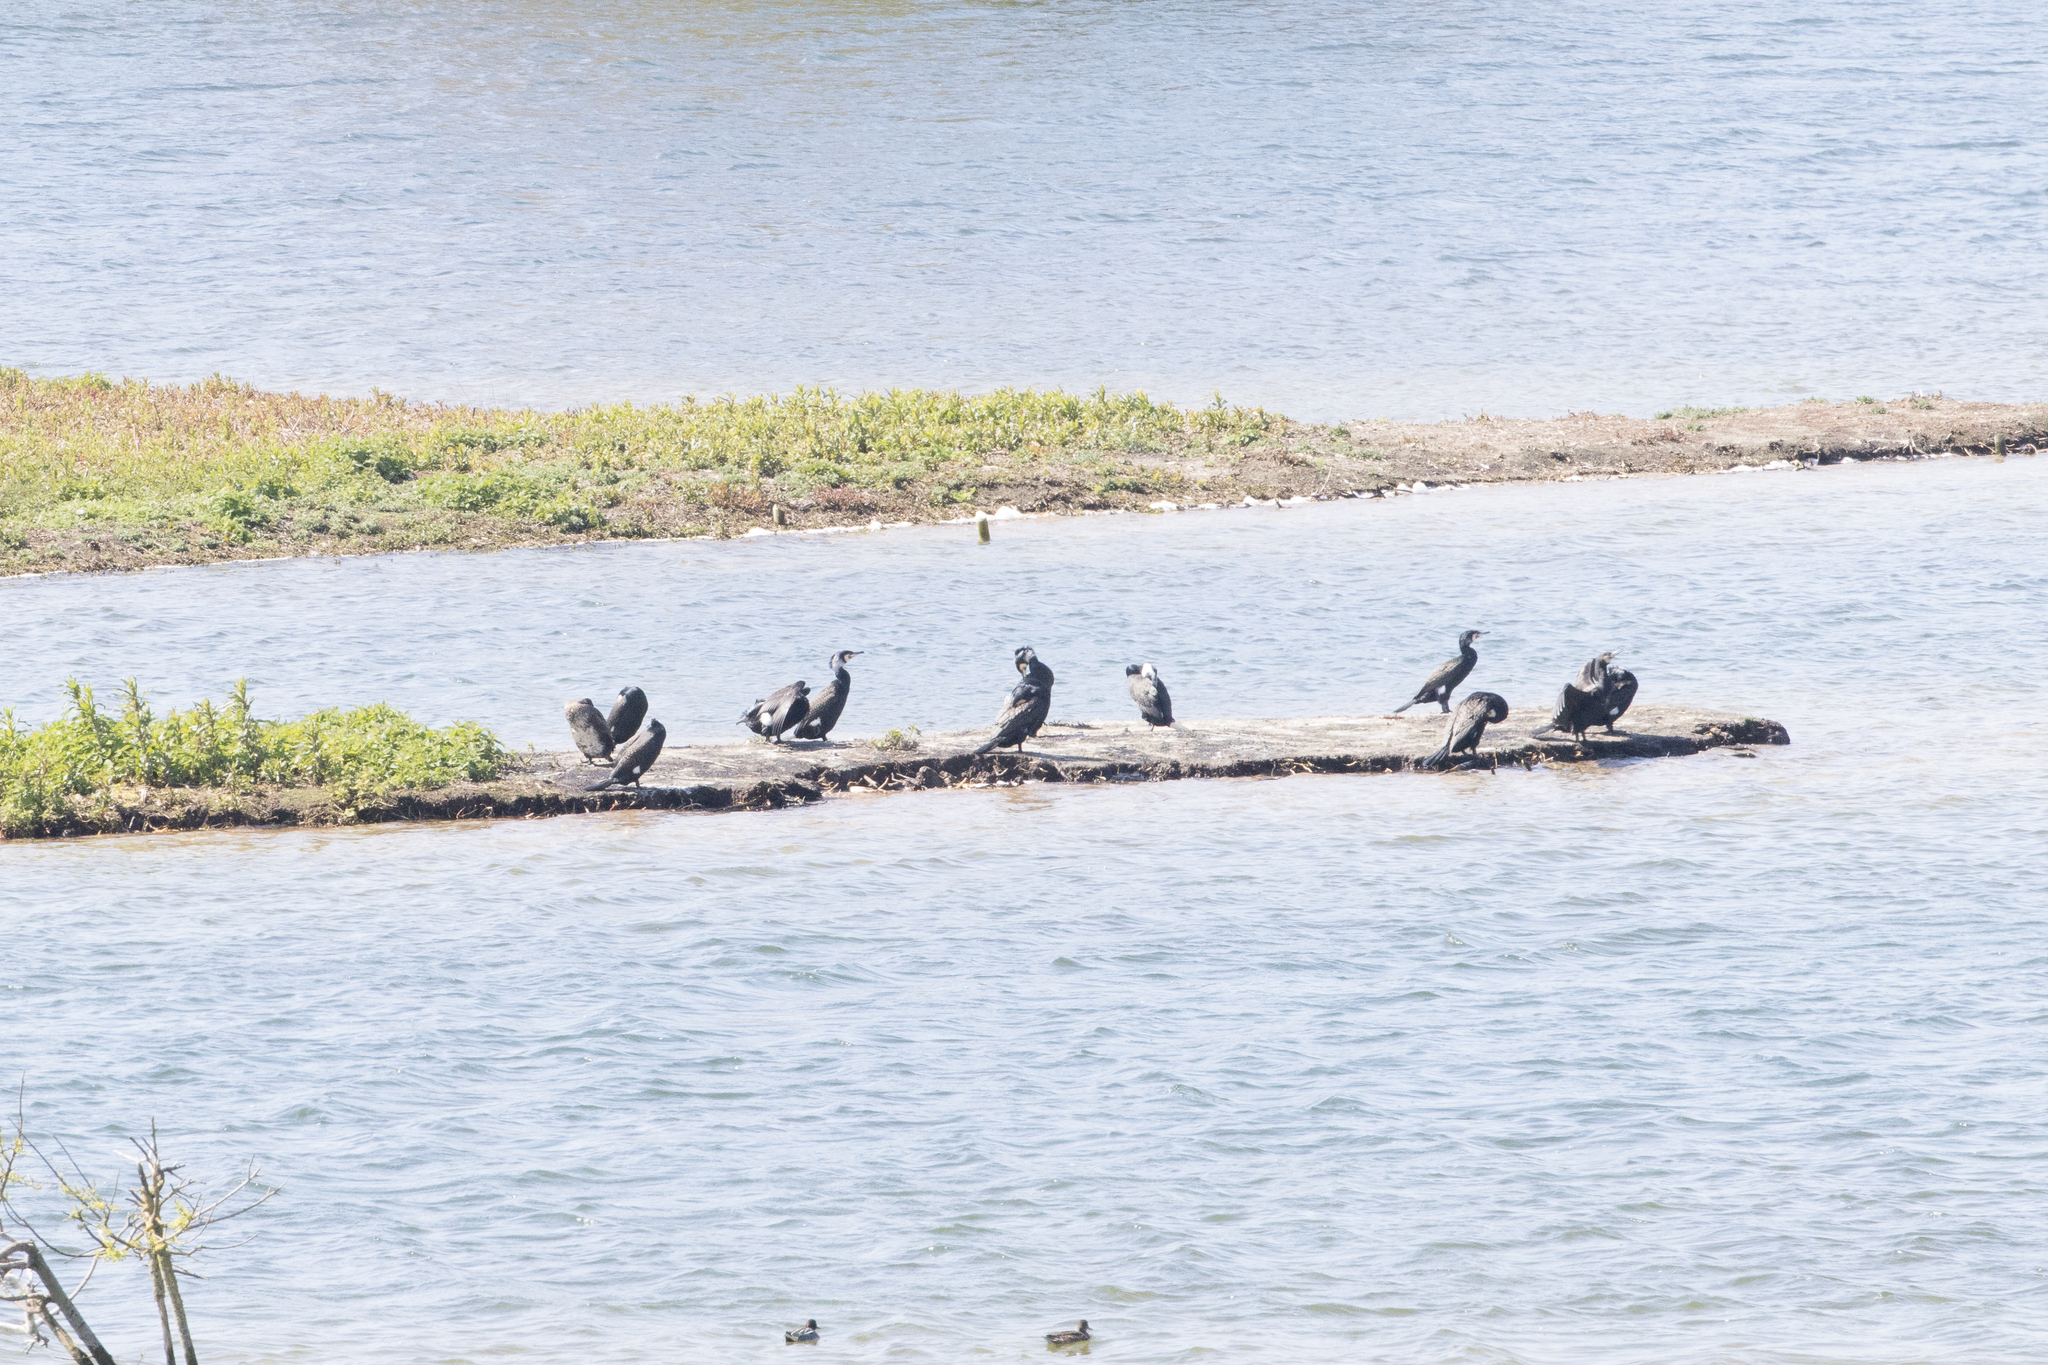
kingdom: Animalia
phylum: Chordata
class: Aves
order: Suliformes
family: Phalacrocoracidae
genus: Phalacrocorax
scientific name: Phalacrocorax carbo
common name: Great cormorant
